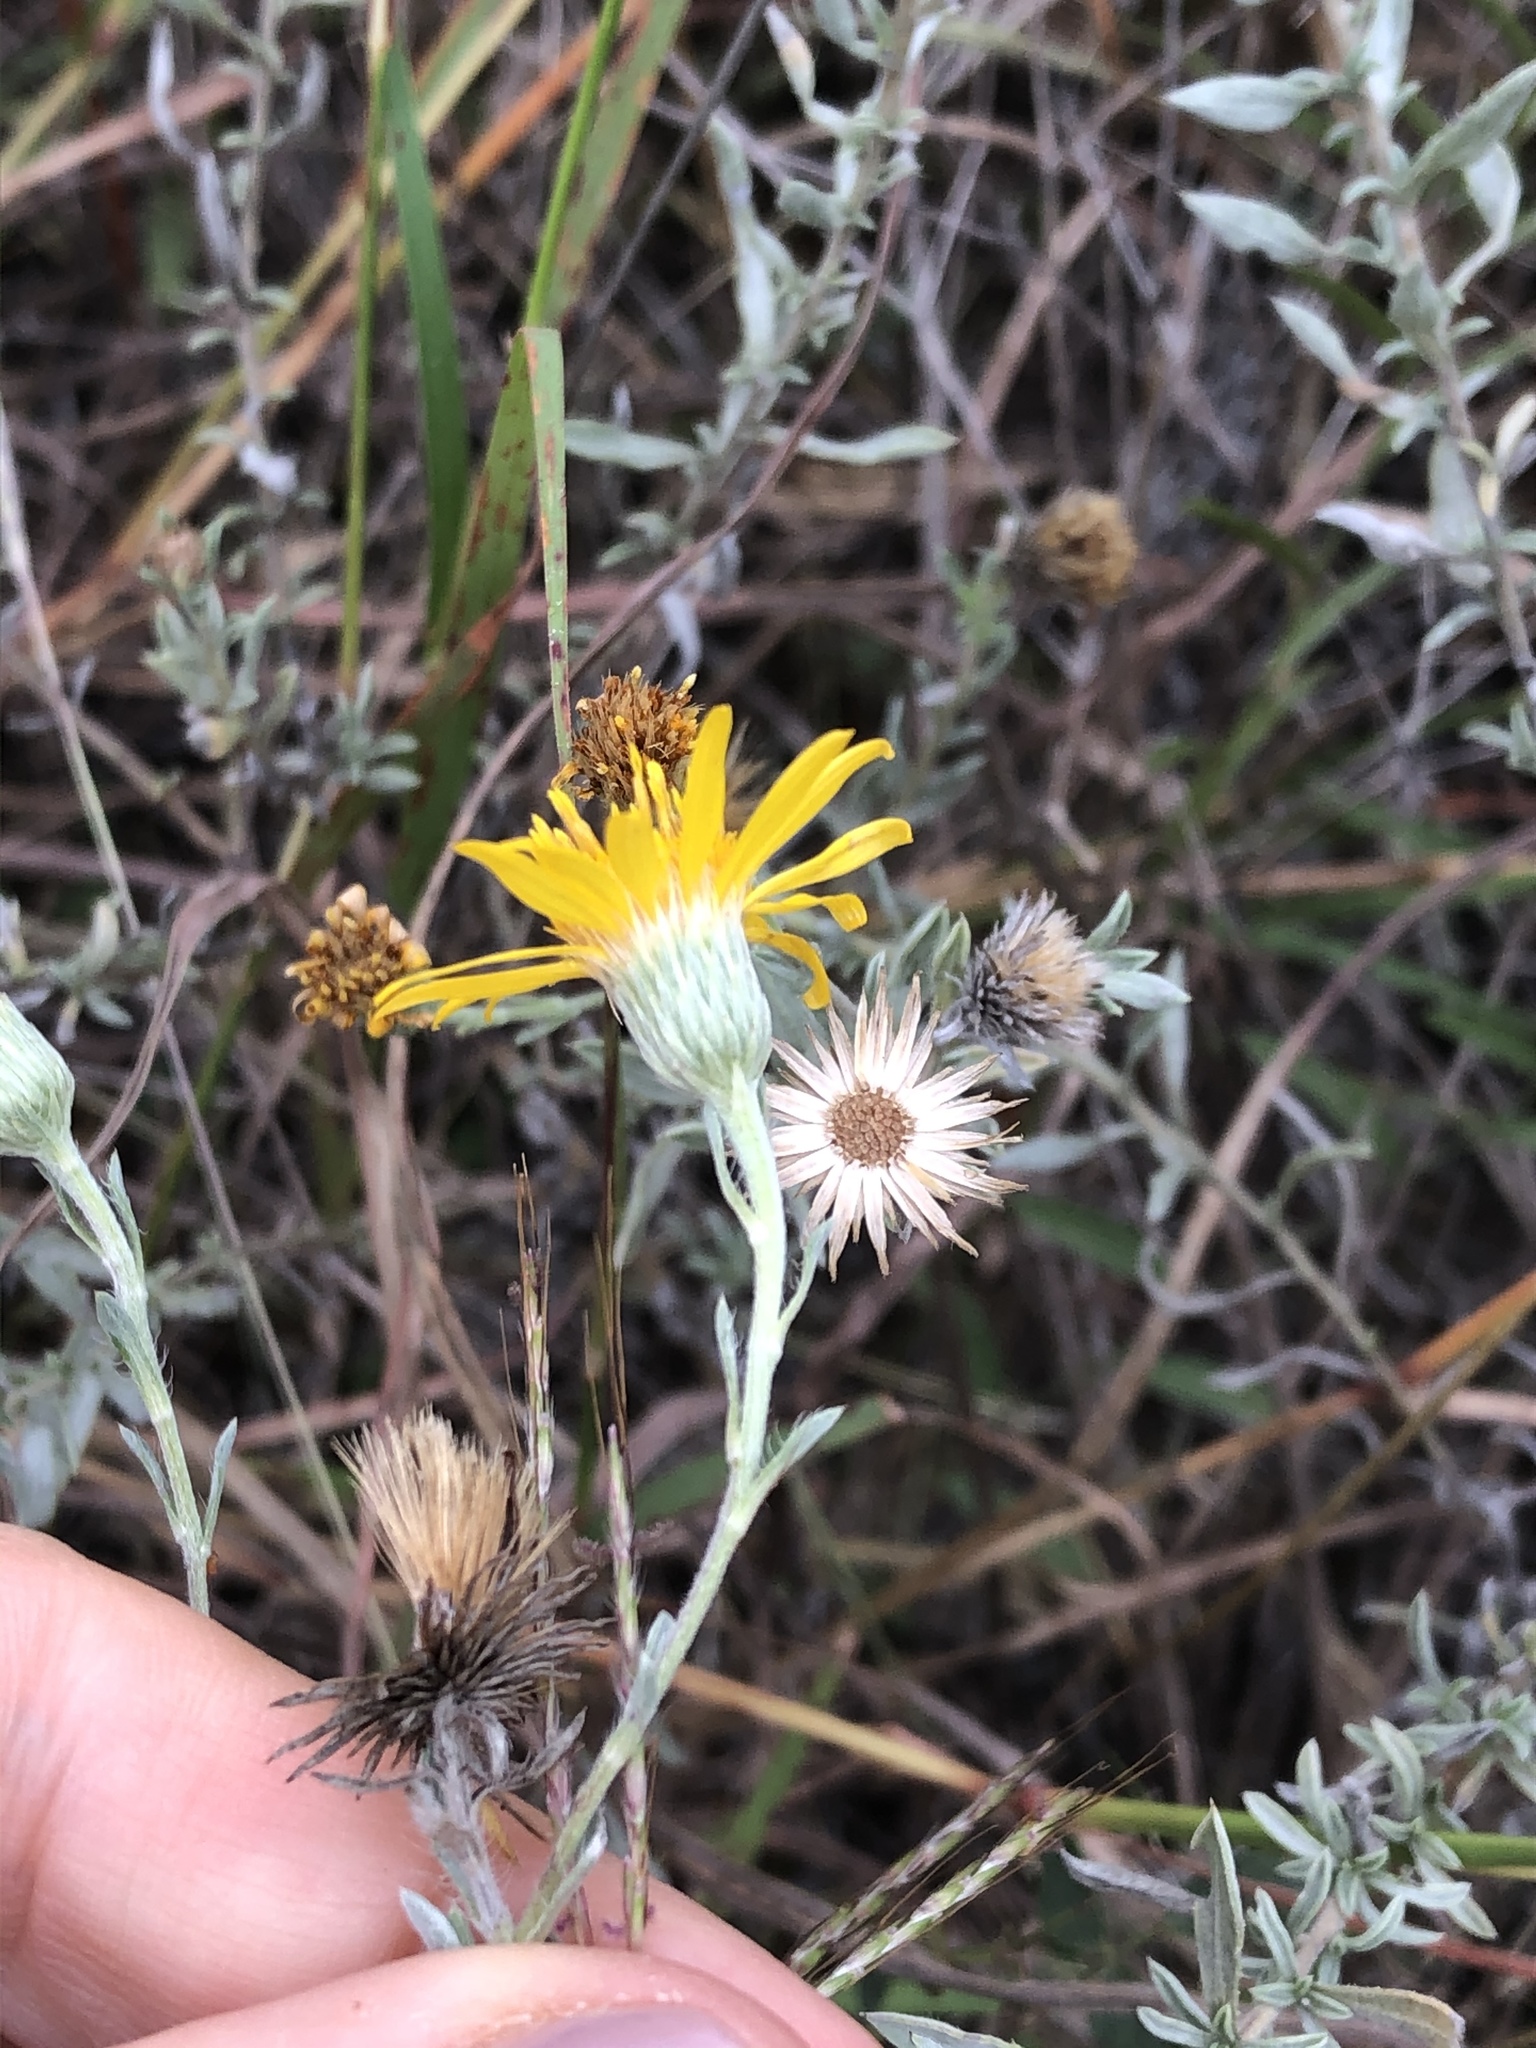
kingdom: Plantae
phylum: Tracheophyta
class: Magnoliopsida
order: Asterales
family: Asteraceae
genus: Heterotheca
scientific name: Heterotheca canescens
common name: Hoary golden-aster
